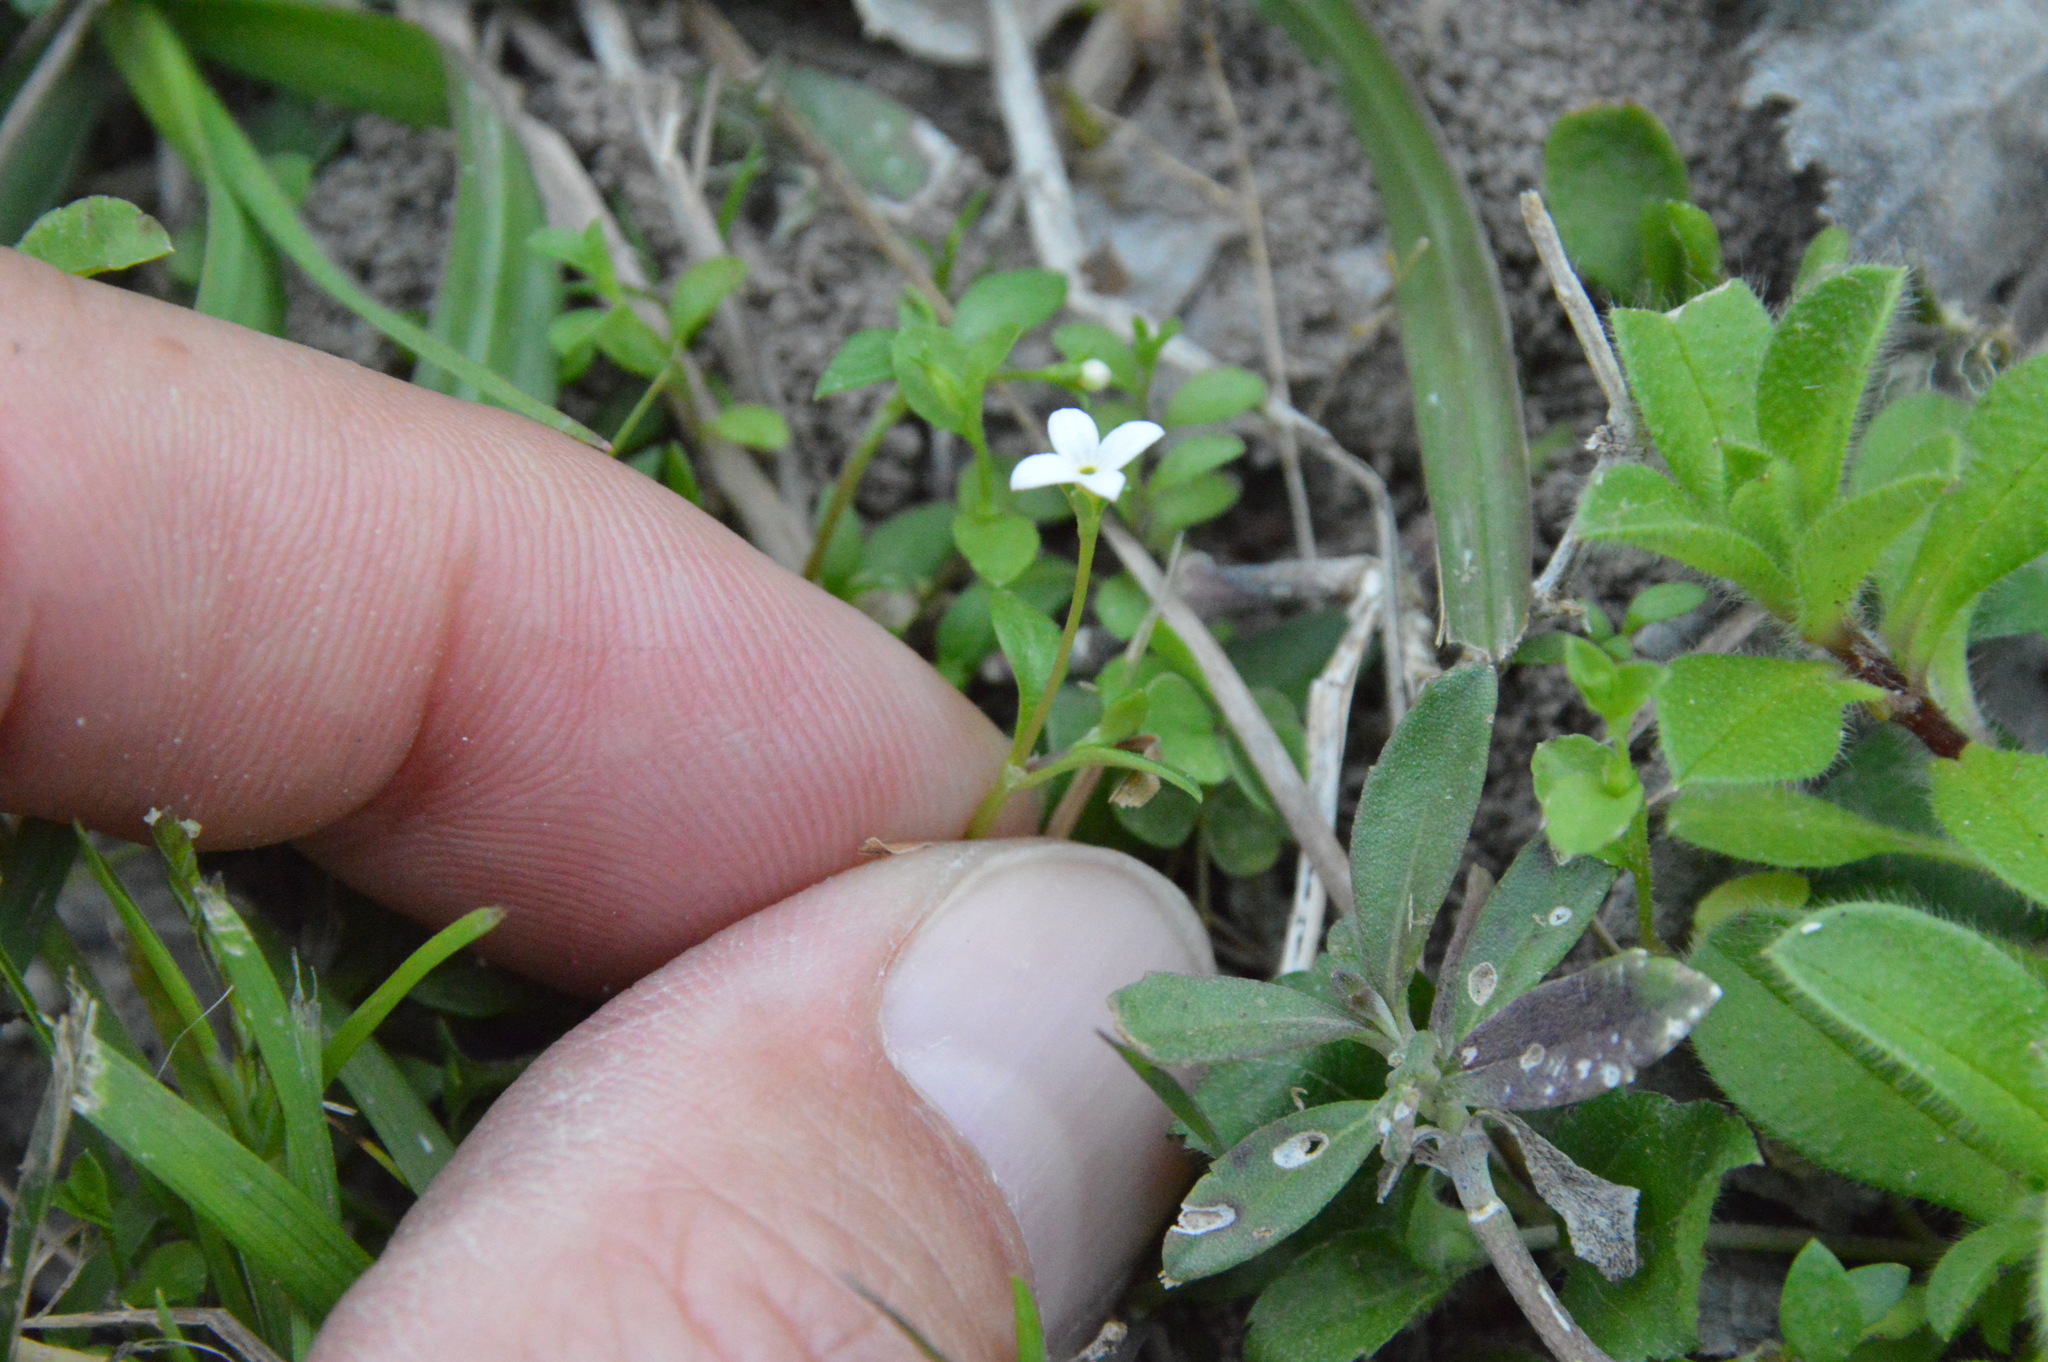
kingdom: Plantae
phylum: Tracheophyta
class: Magnoliopsida
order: Gentianales
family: Rubiaceae
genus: Houstonia
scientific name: Houstonia micrantha
